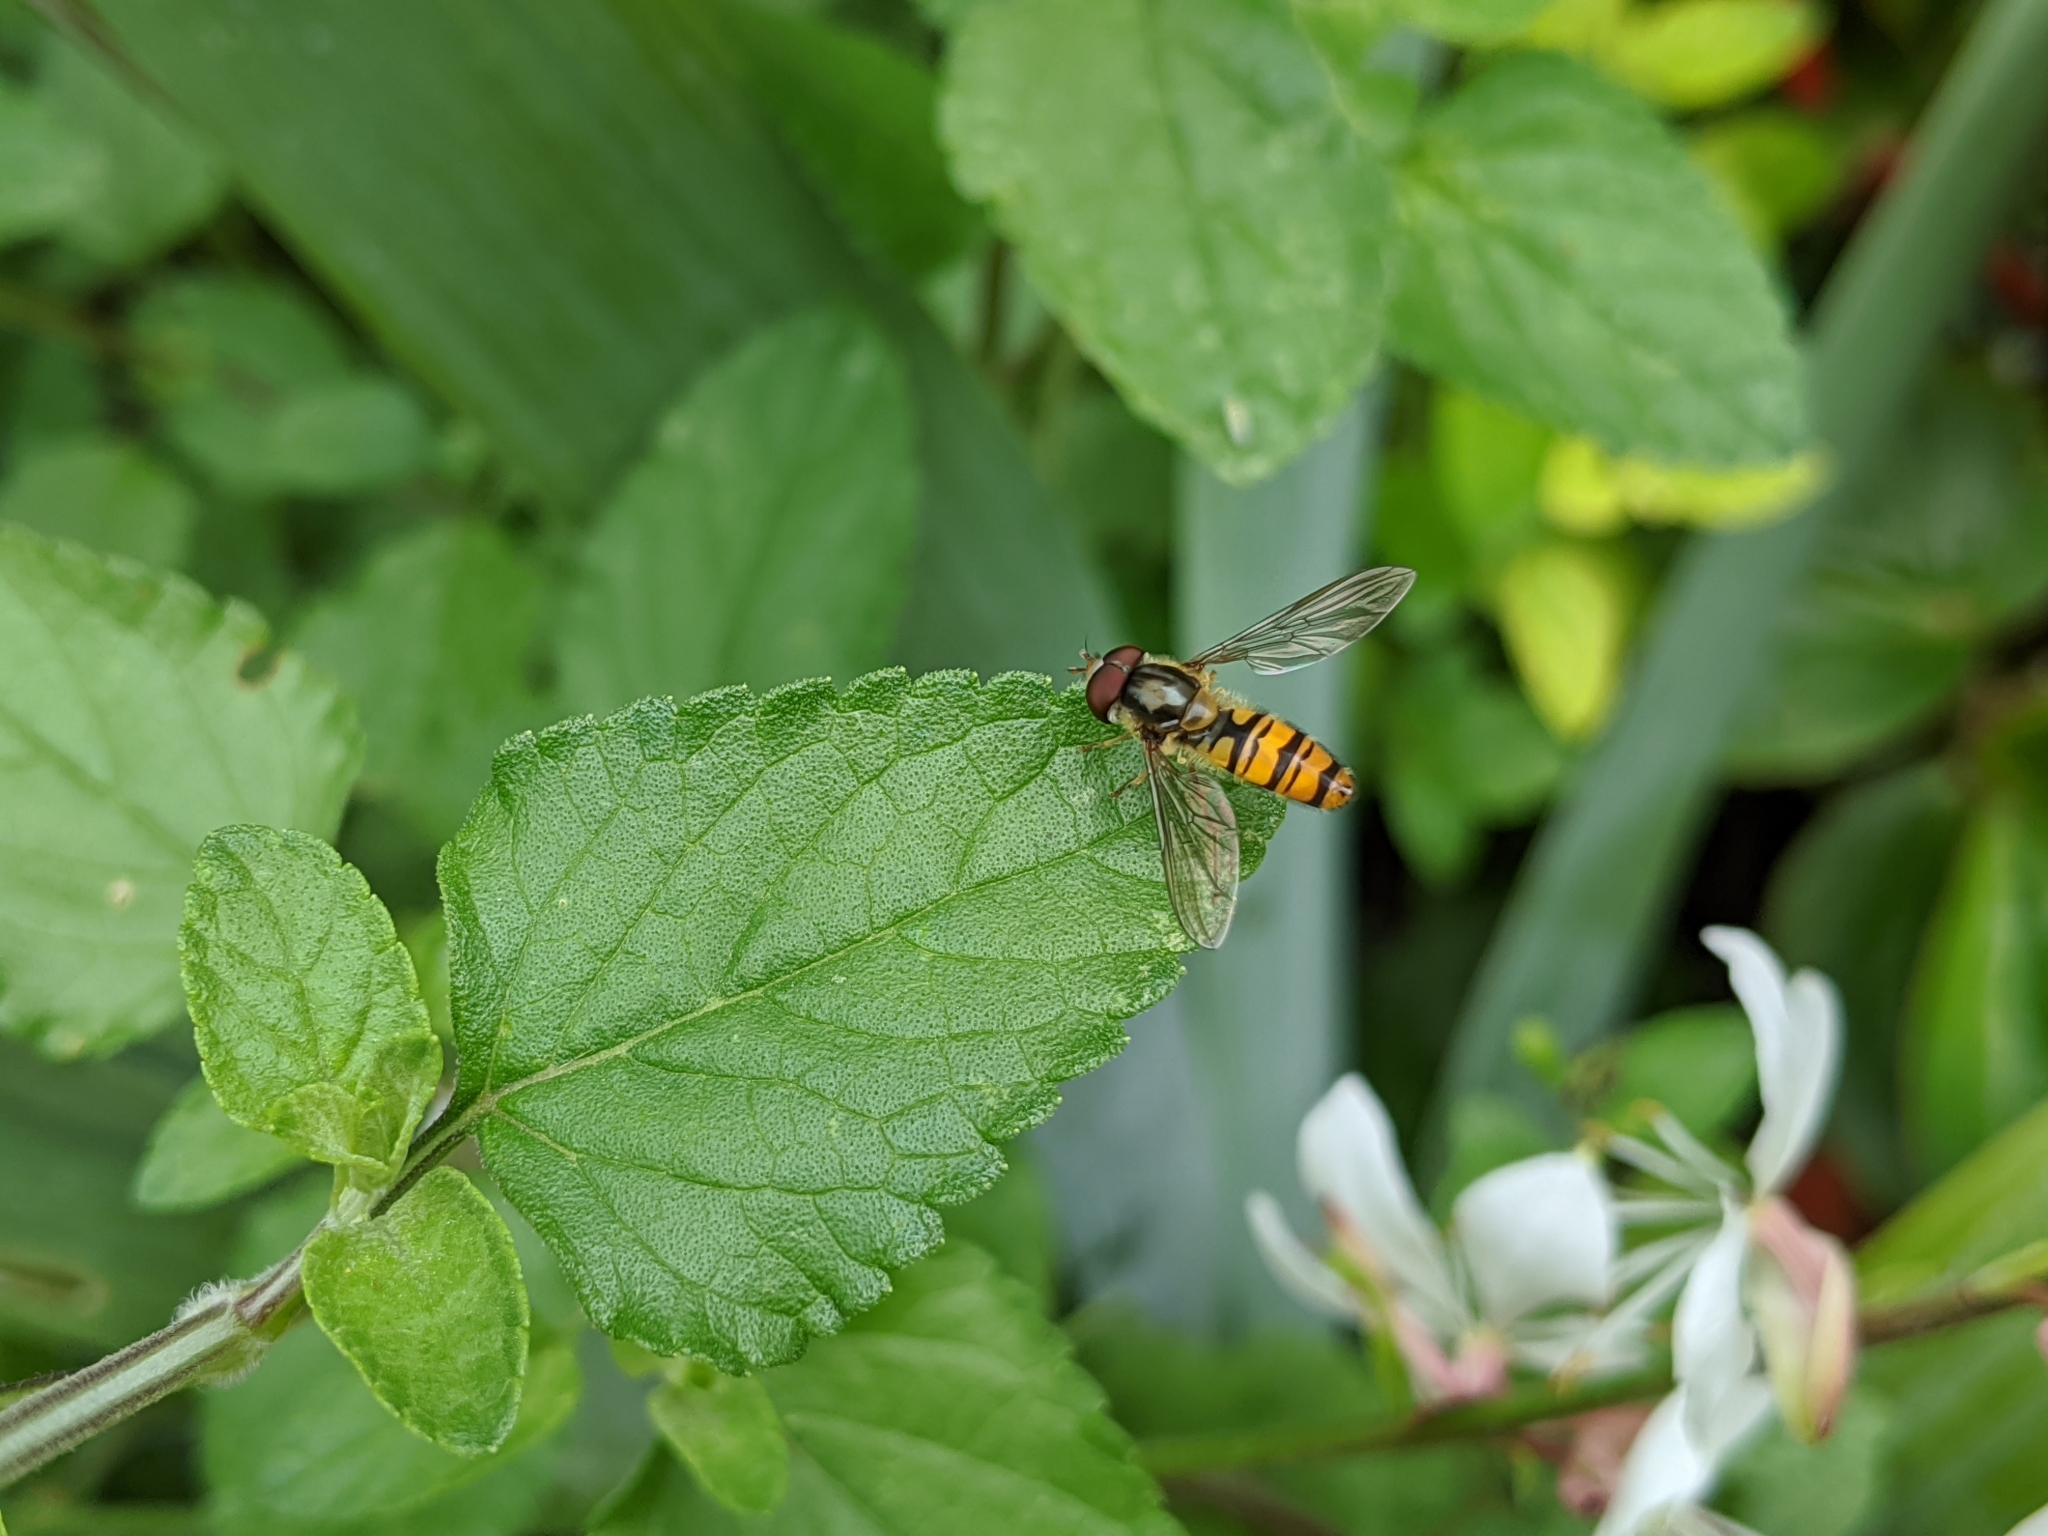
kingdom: Animalia
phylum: Arthropoda
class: Insecta
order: Diptera
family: Syrphidae
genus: Episyrphus
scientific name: Episyrphus balteatus
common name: Marmalade hoverfly
